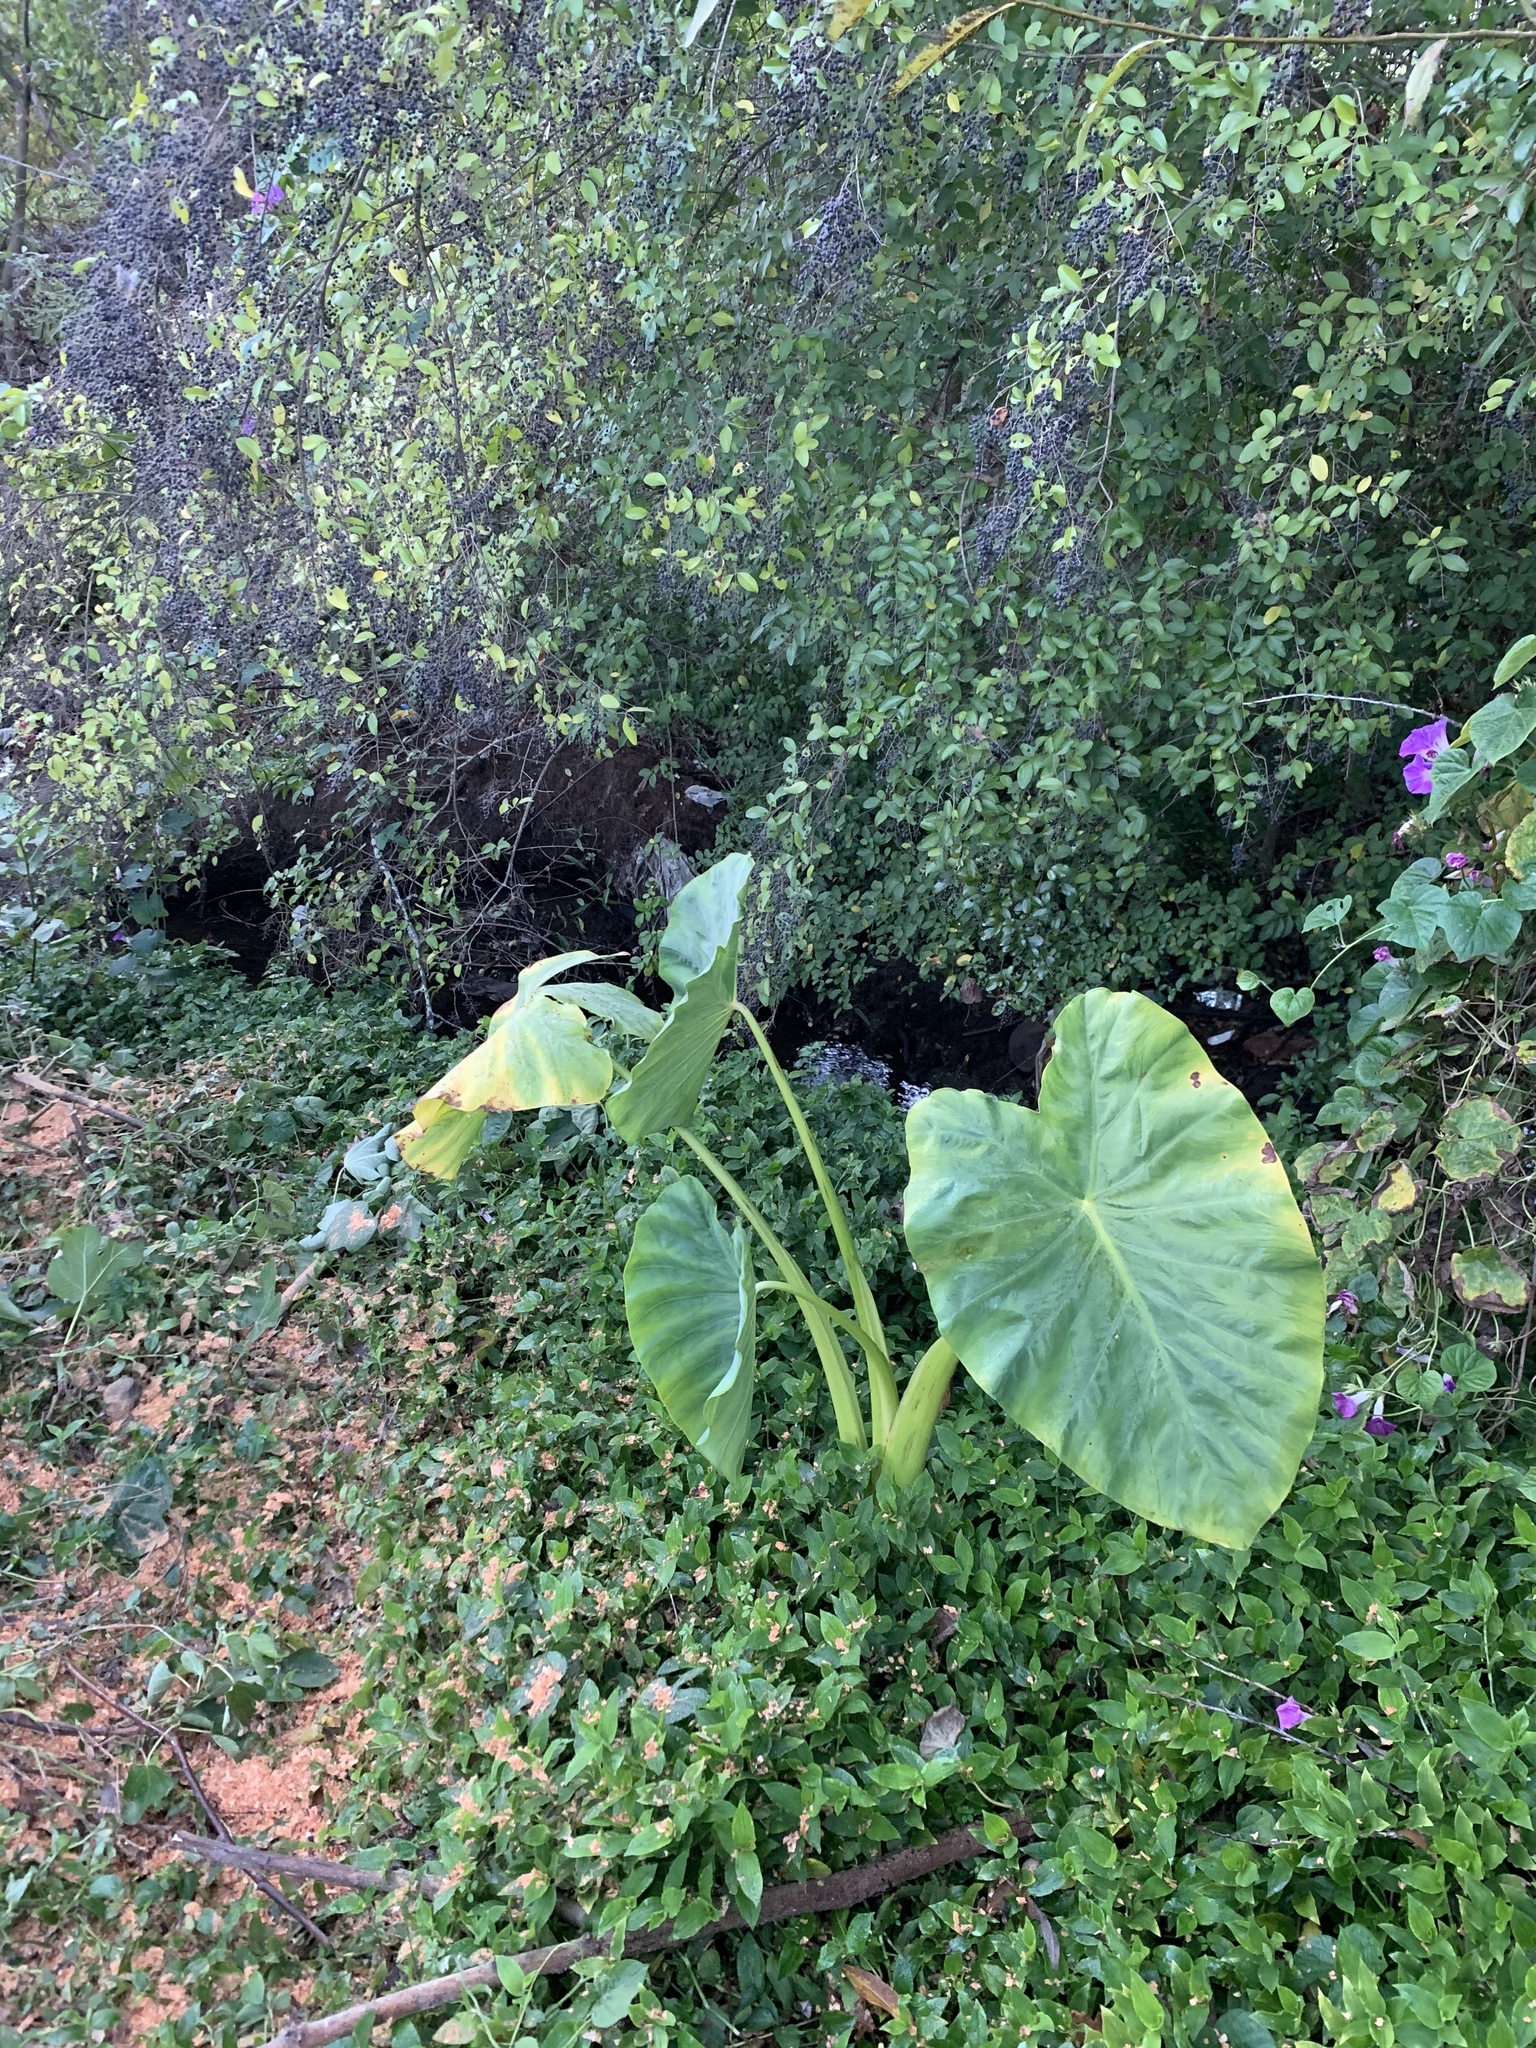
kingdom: Plantae
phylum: Tracheophyta
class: Liliopsida
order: Alismatales
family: Araceae
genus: Colocasia
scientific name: Colocasia esculenta
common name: Taro
